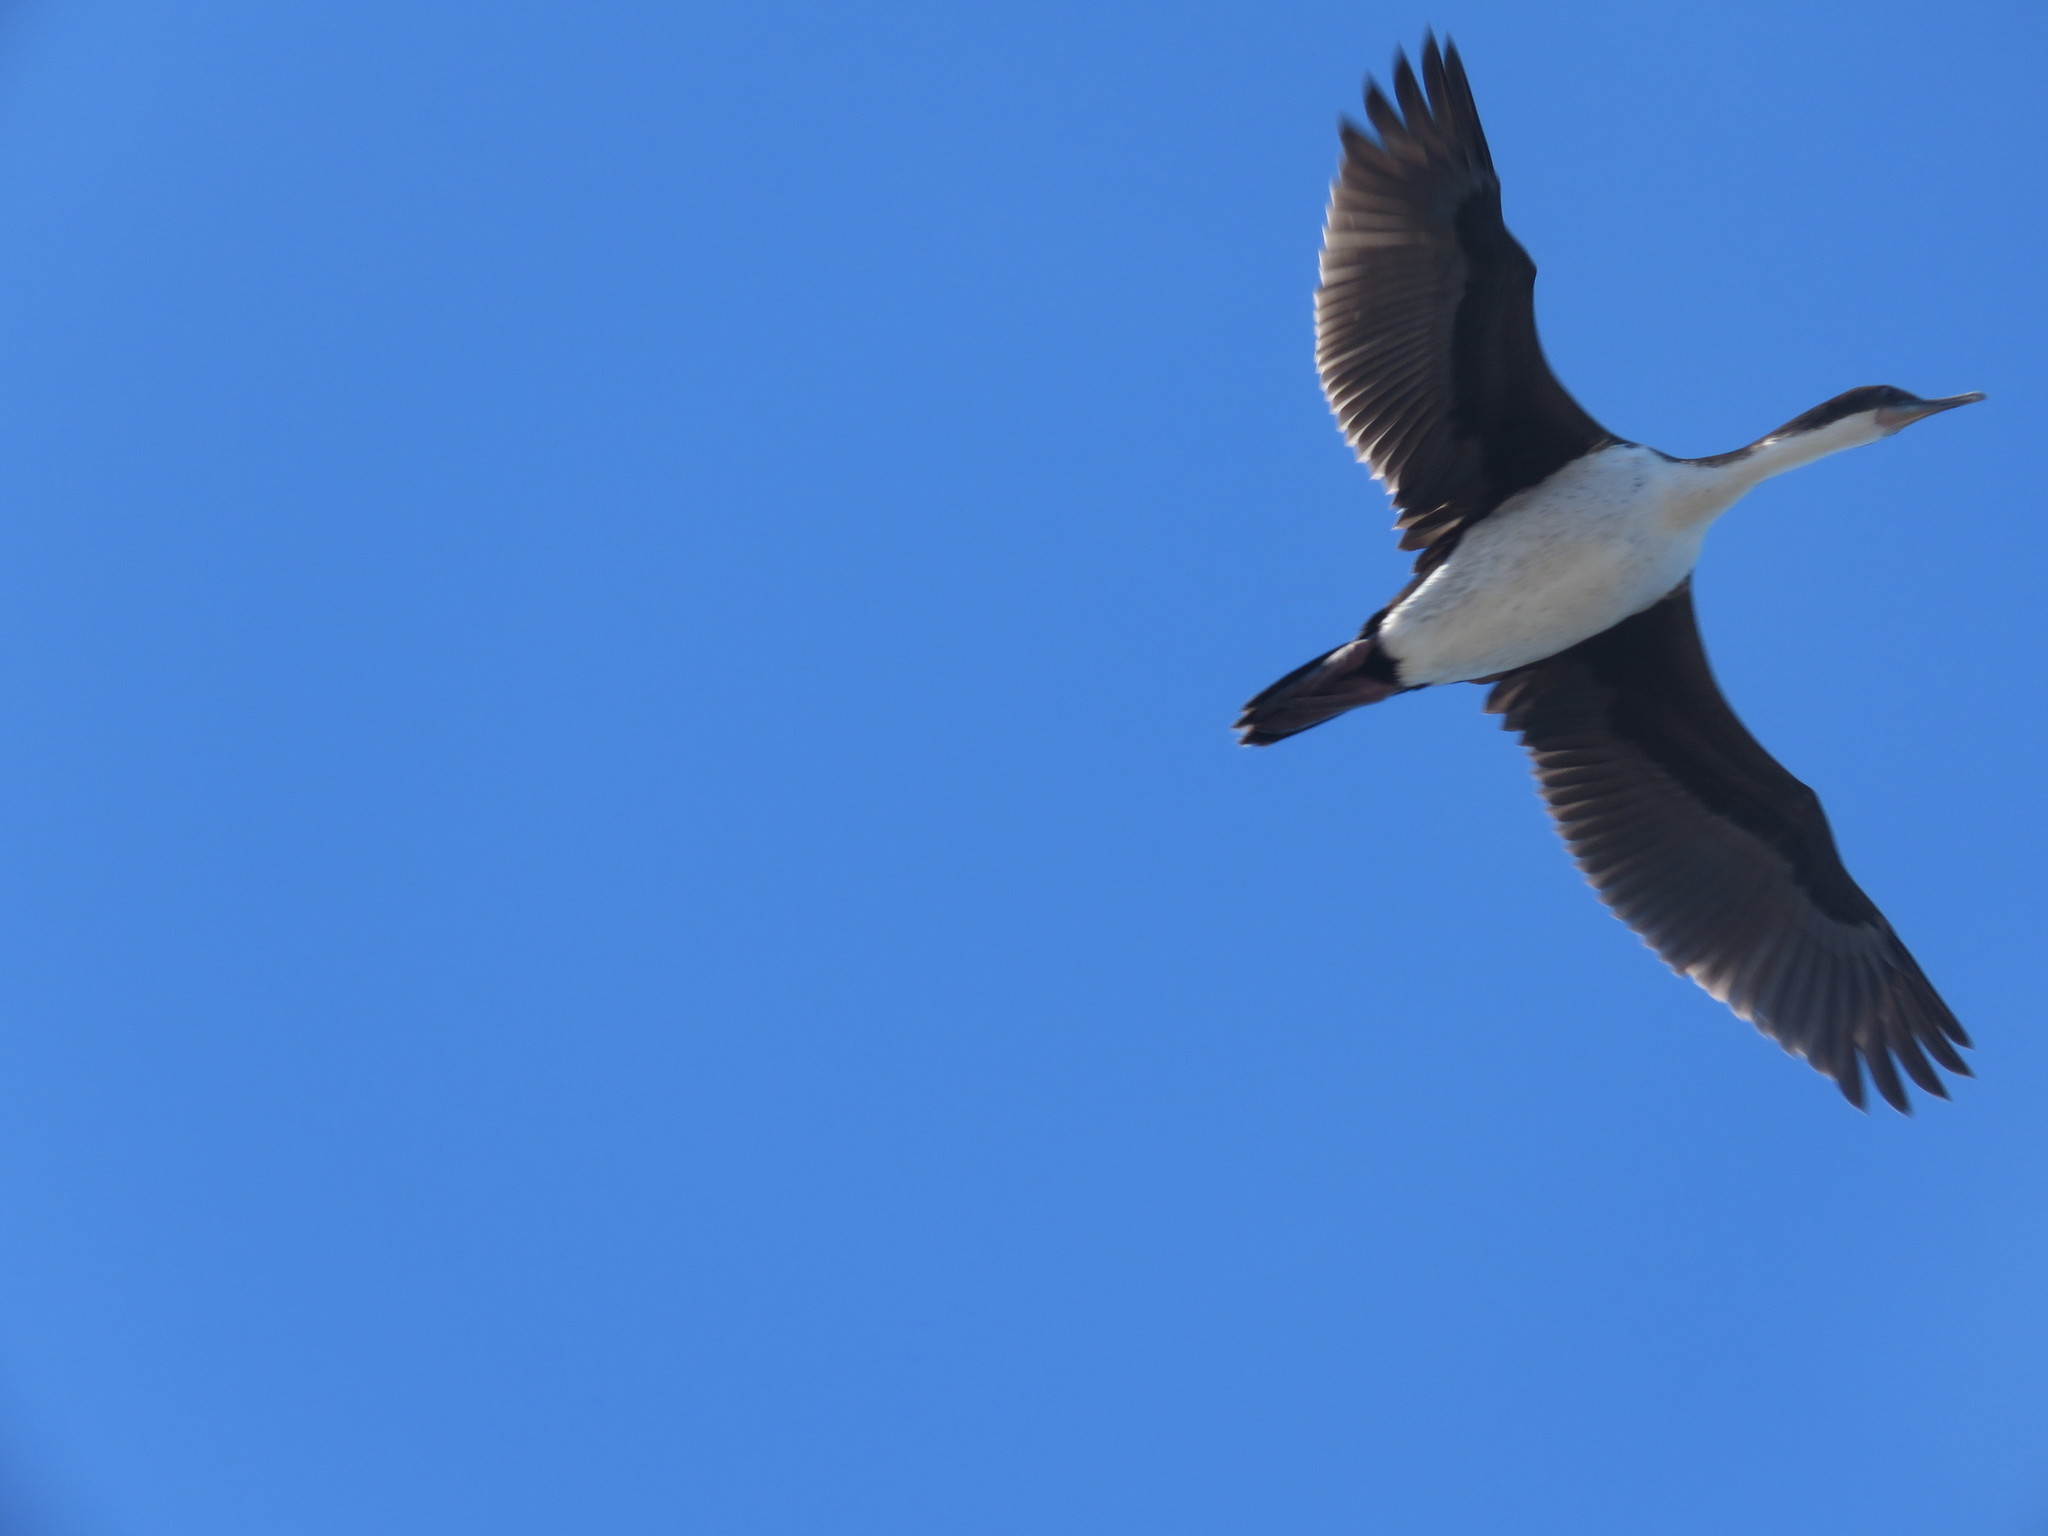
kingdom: Animalia
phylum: Chordata
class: Aves
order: Suliformes
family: Phalacrocoracidae
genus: Leucocarbo
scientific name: Leucocarbo atriceps
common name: Imperial shag
